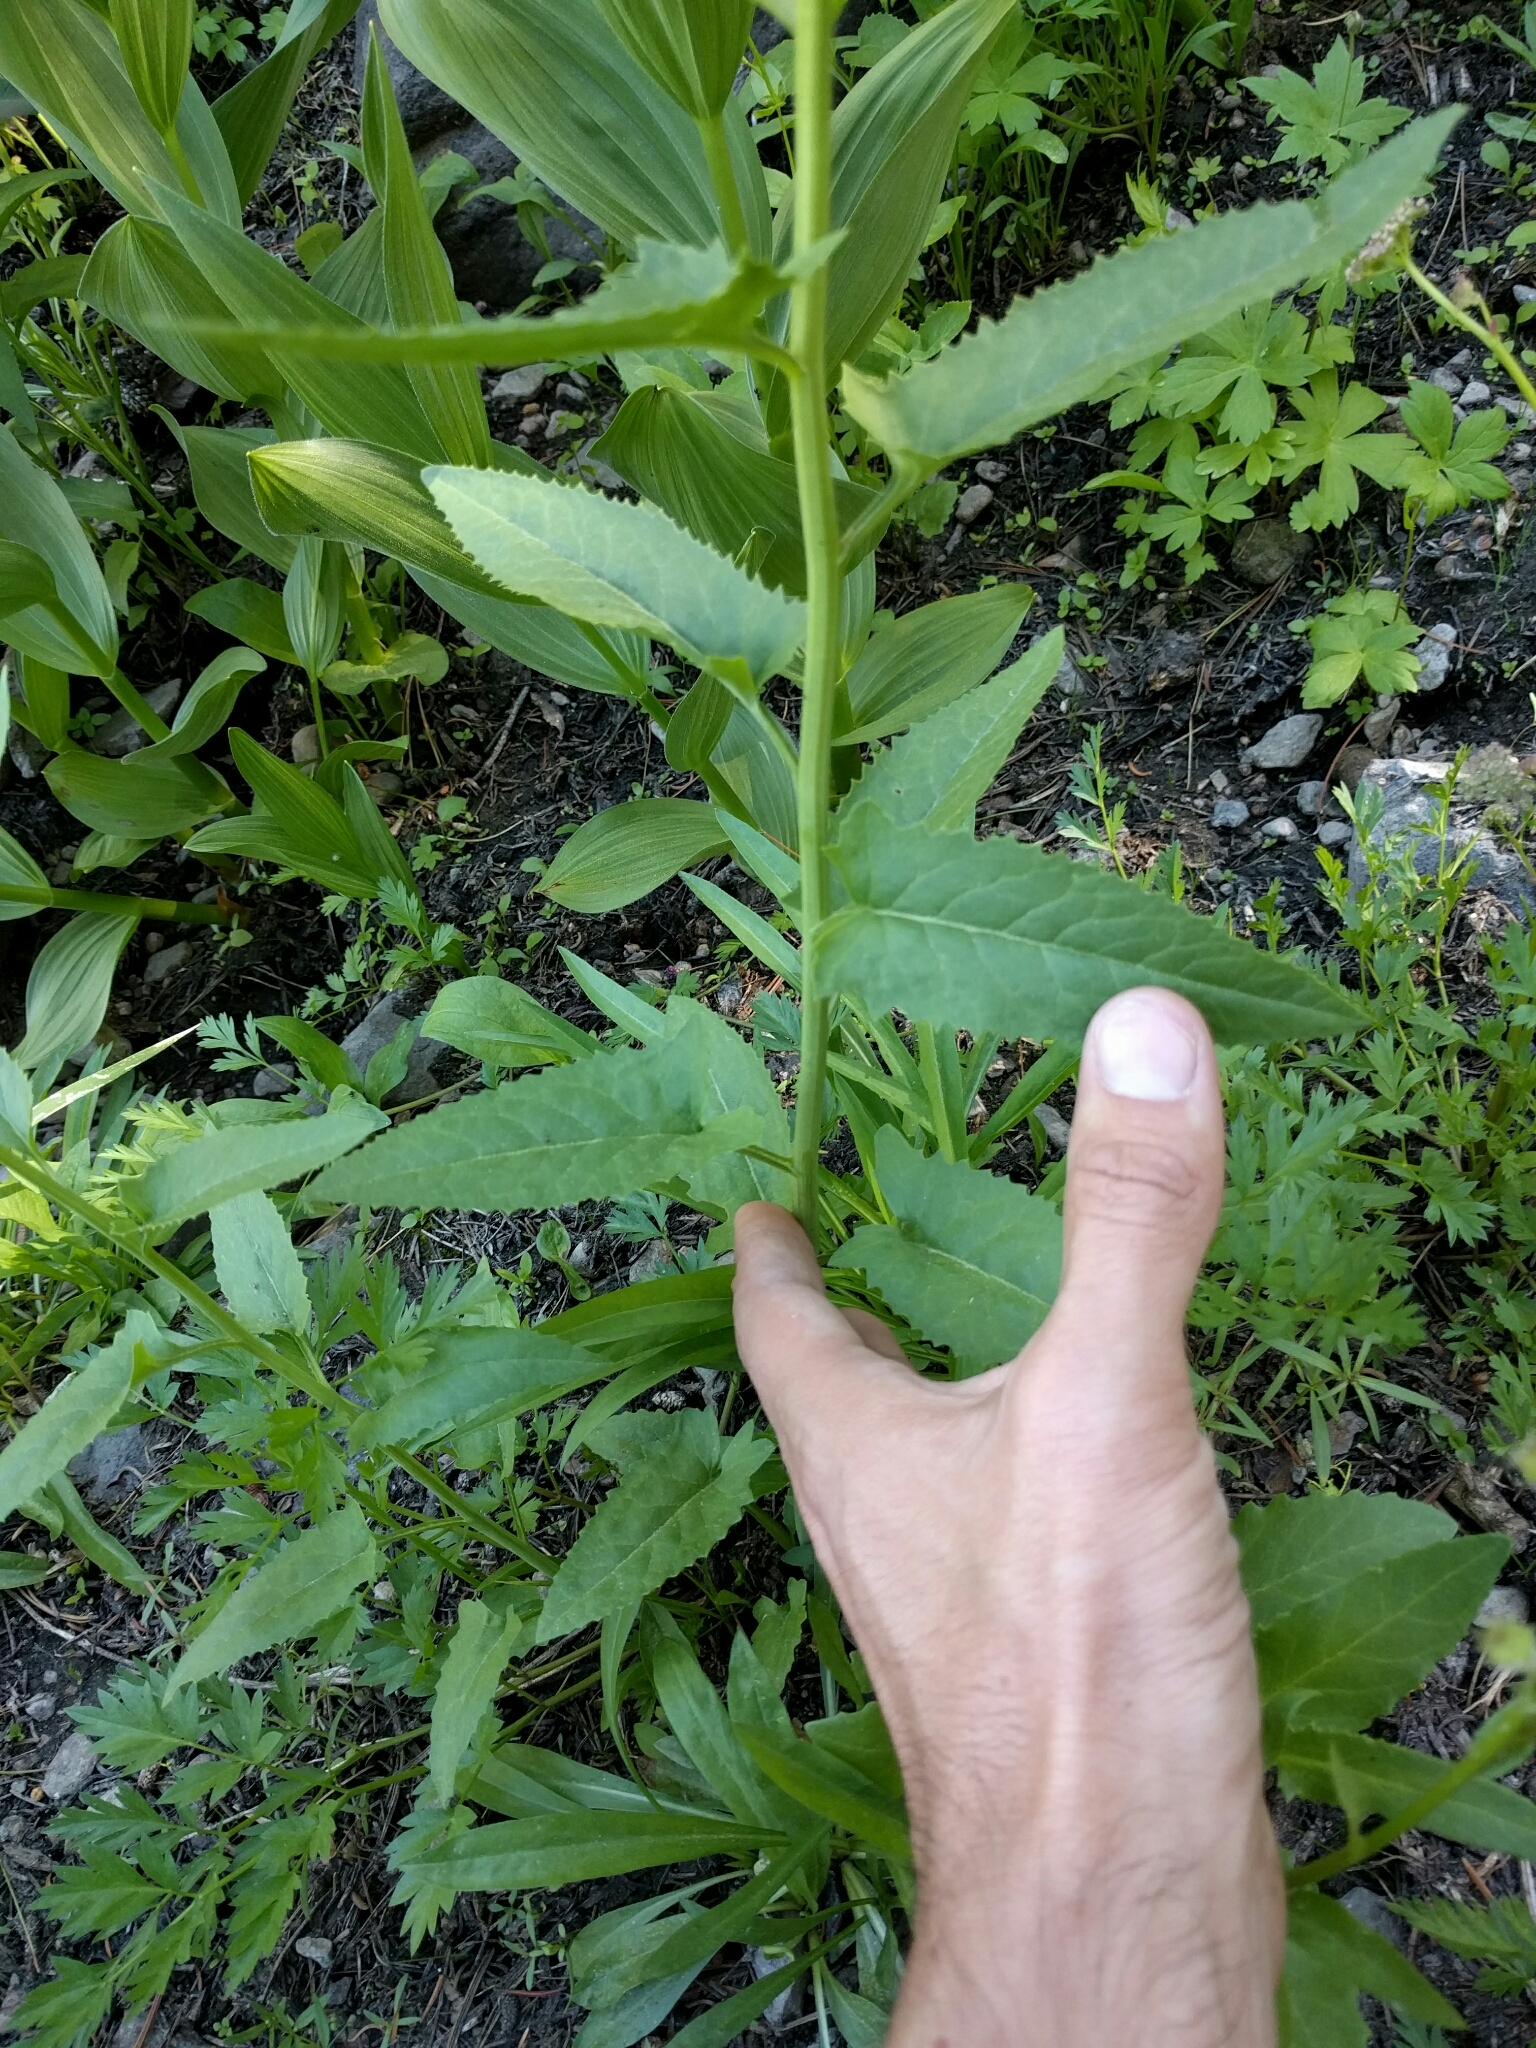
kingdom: Plantae
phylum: Tracheophyta
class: Magnoliopsida
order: Asterales
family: Asteraceae
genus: Senecio
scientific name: Senecio triangularis
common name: Arrowleaf butterweed
